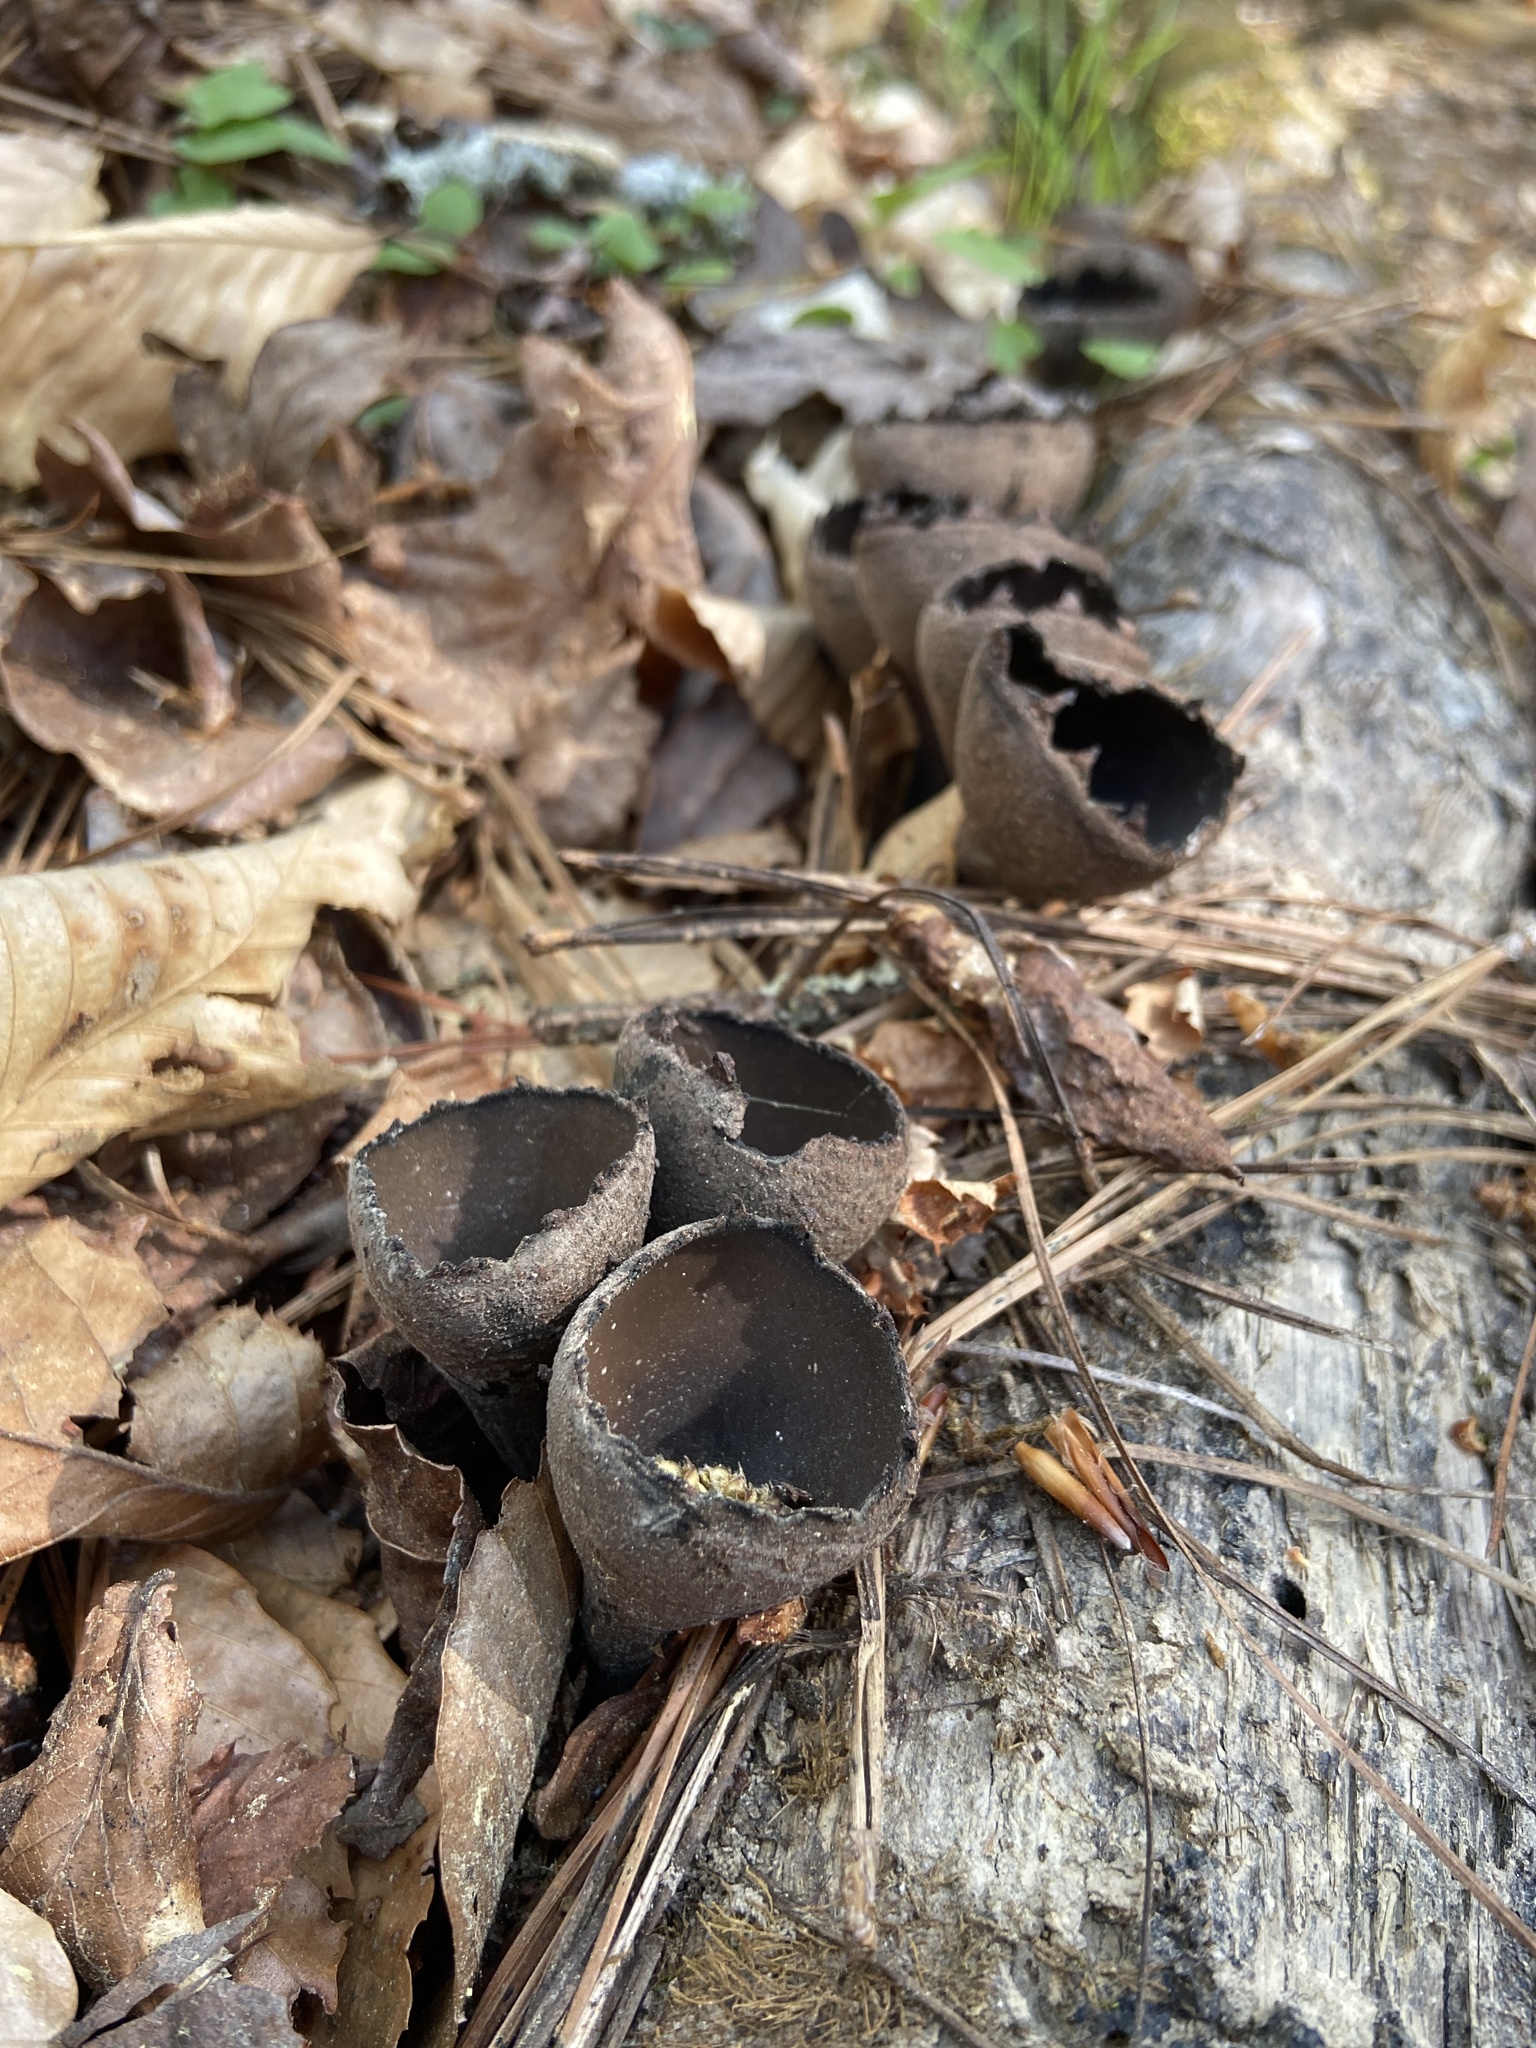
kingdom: Fungi
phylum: Ascomycota
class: Pezizomycetes
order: Pezizales
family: Sarcosomataceae
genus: Urnula
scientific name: Urnula craterium
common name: Devil's urn
